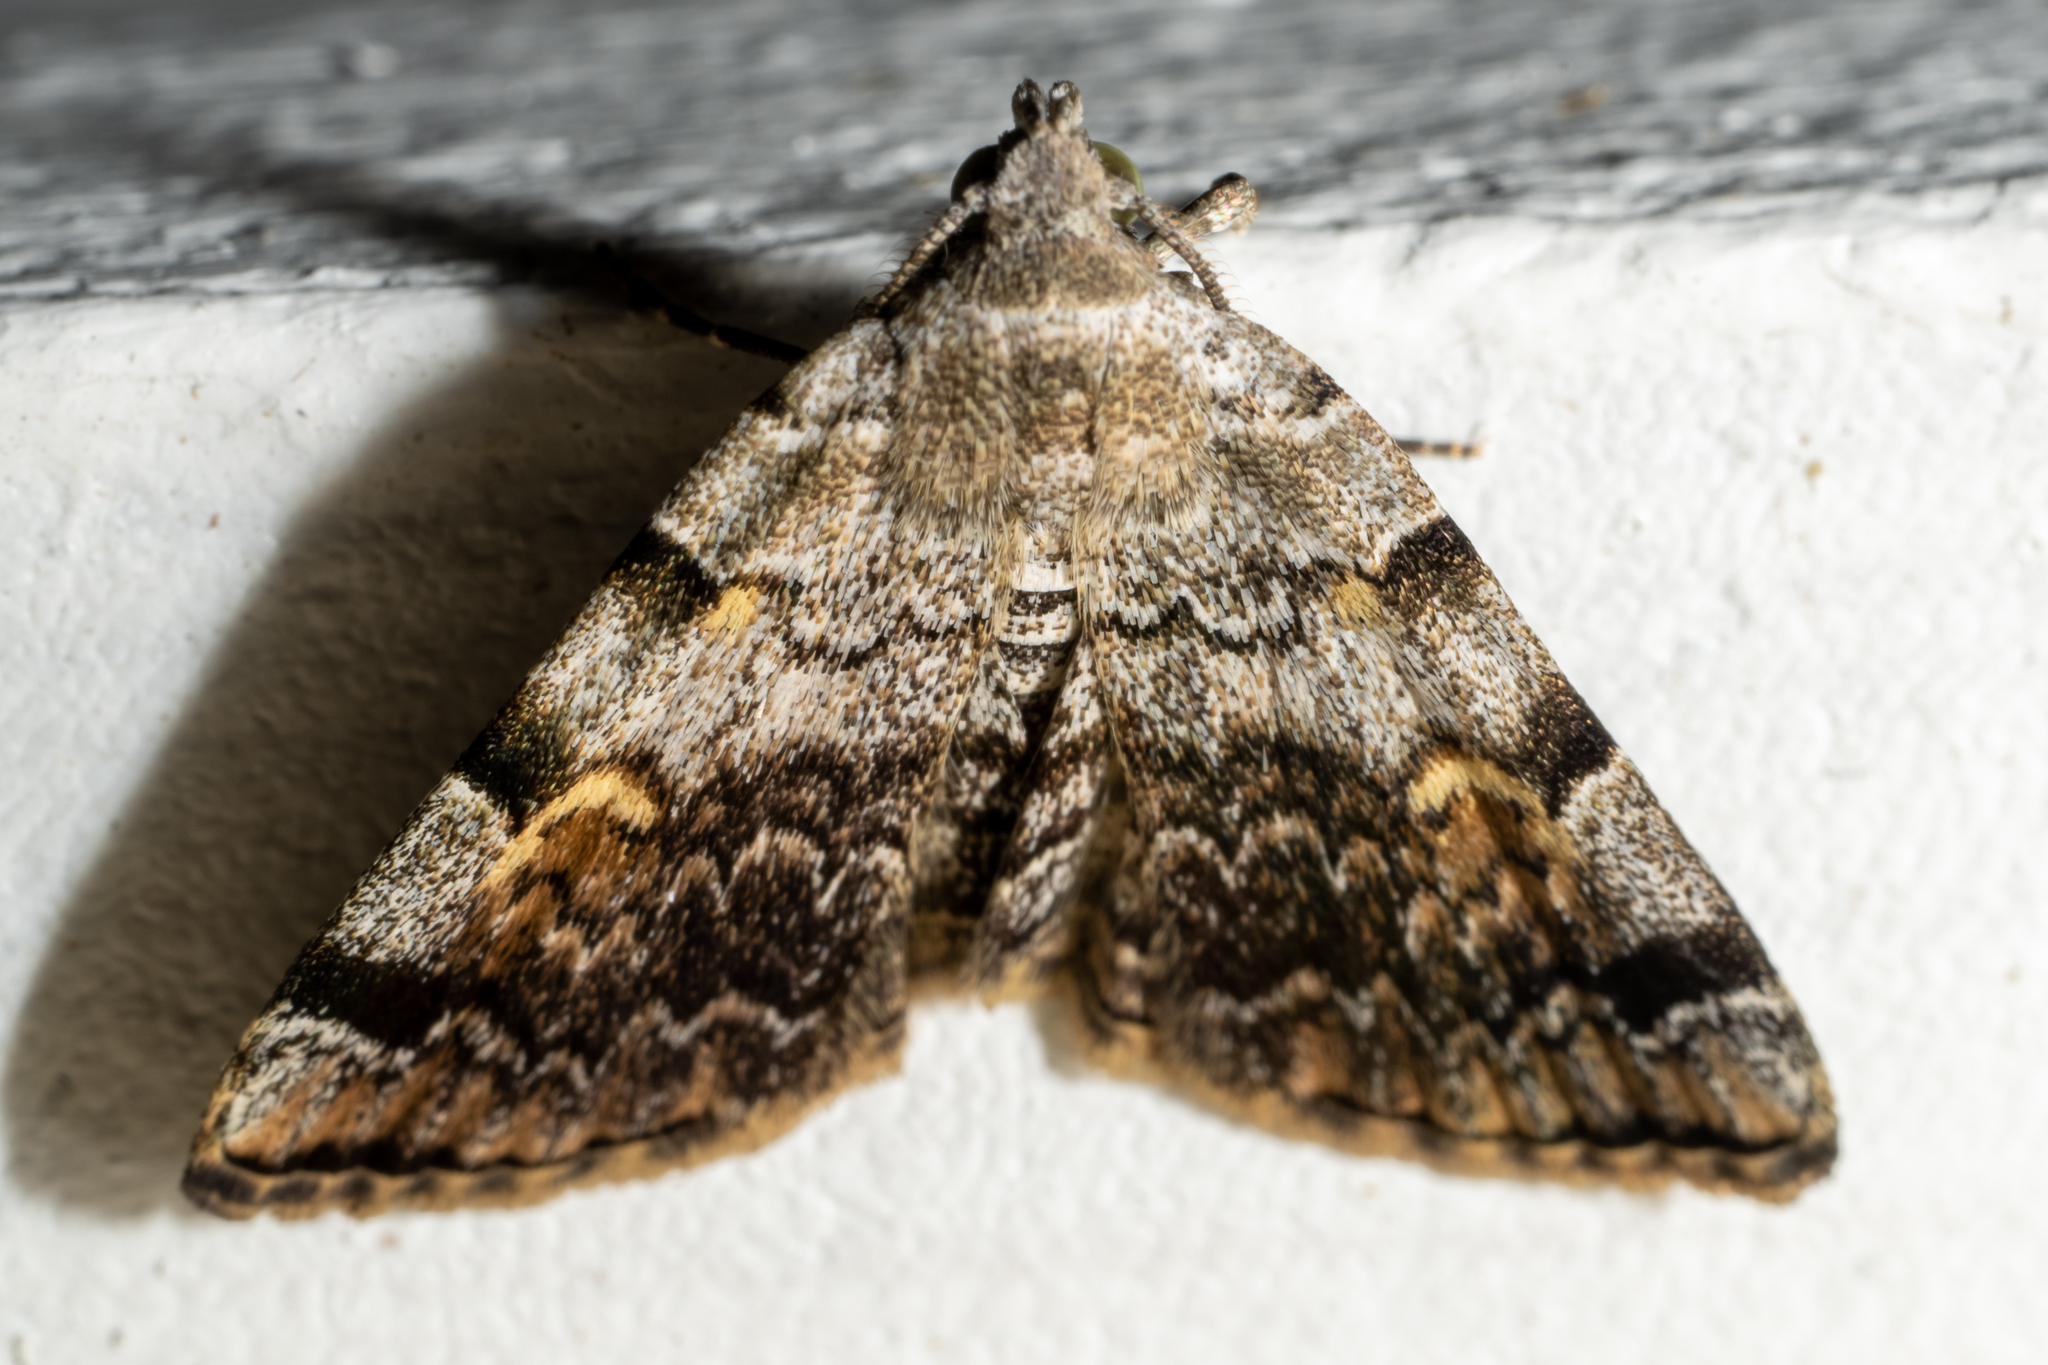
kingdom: Animalia
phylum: Arthropoda
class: Insecta
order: Lepidoptera
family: Erebidae
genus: Idia
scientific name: Idia americalis
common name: American idia moth
